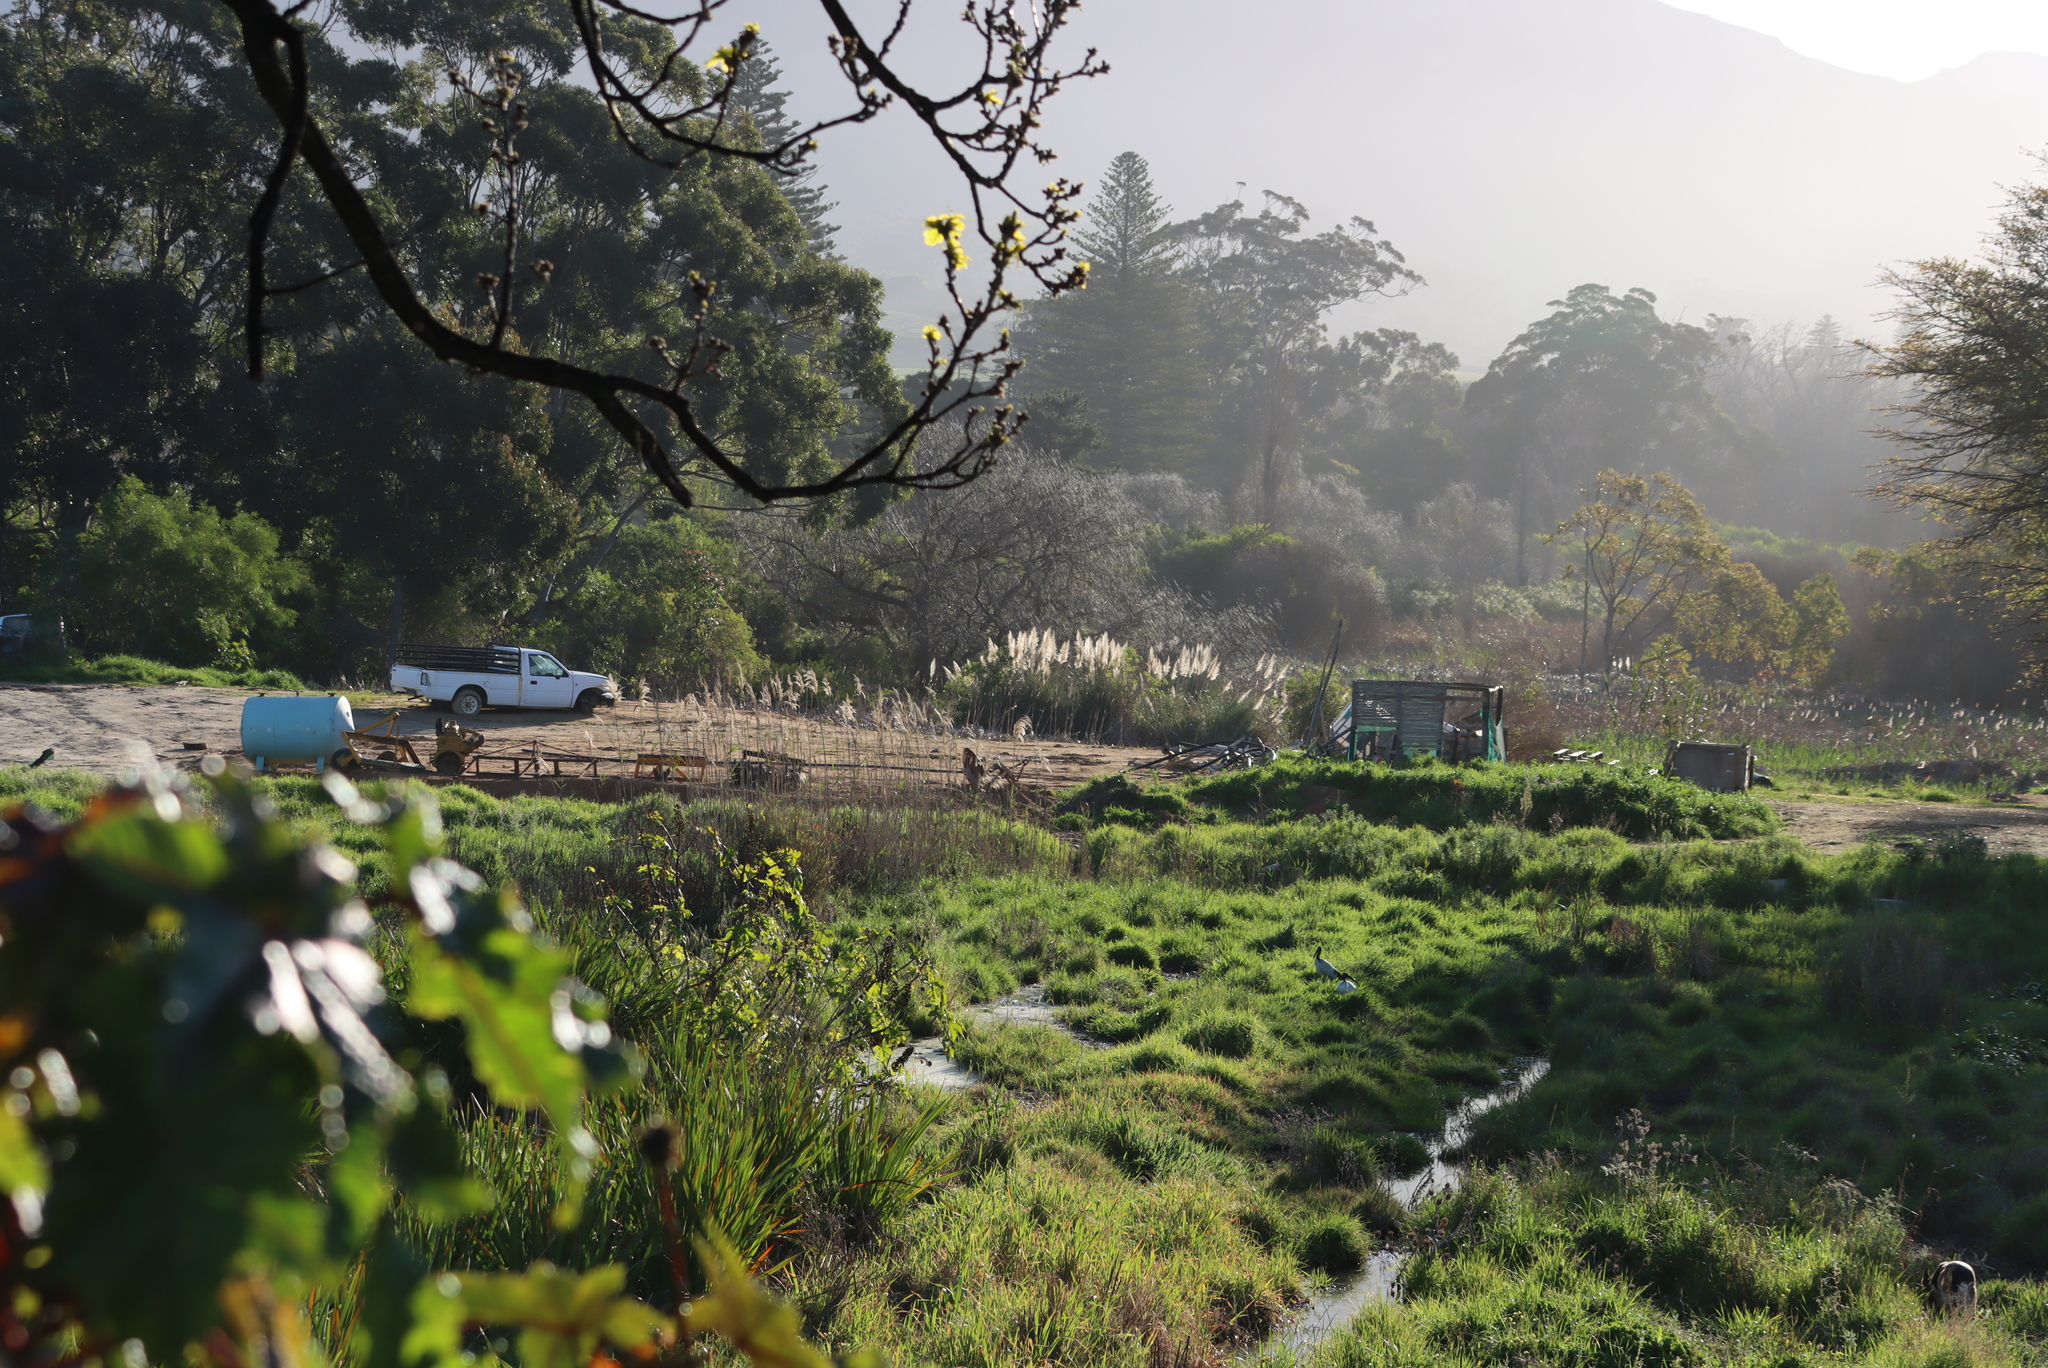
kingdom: Plantae
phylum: Tracheophyta
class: Liliopsida
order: Poales
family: Poaceae
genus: Cortaderia
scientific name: Cortaderia selloana
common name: Uruguayan pampas grass
